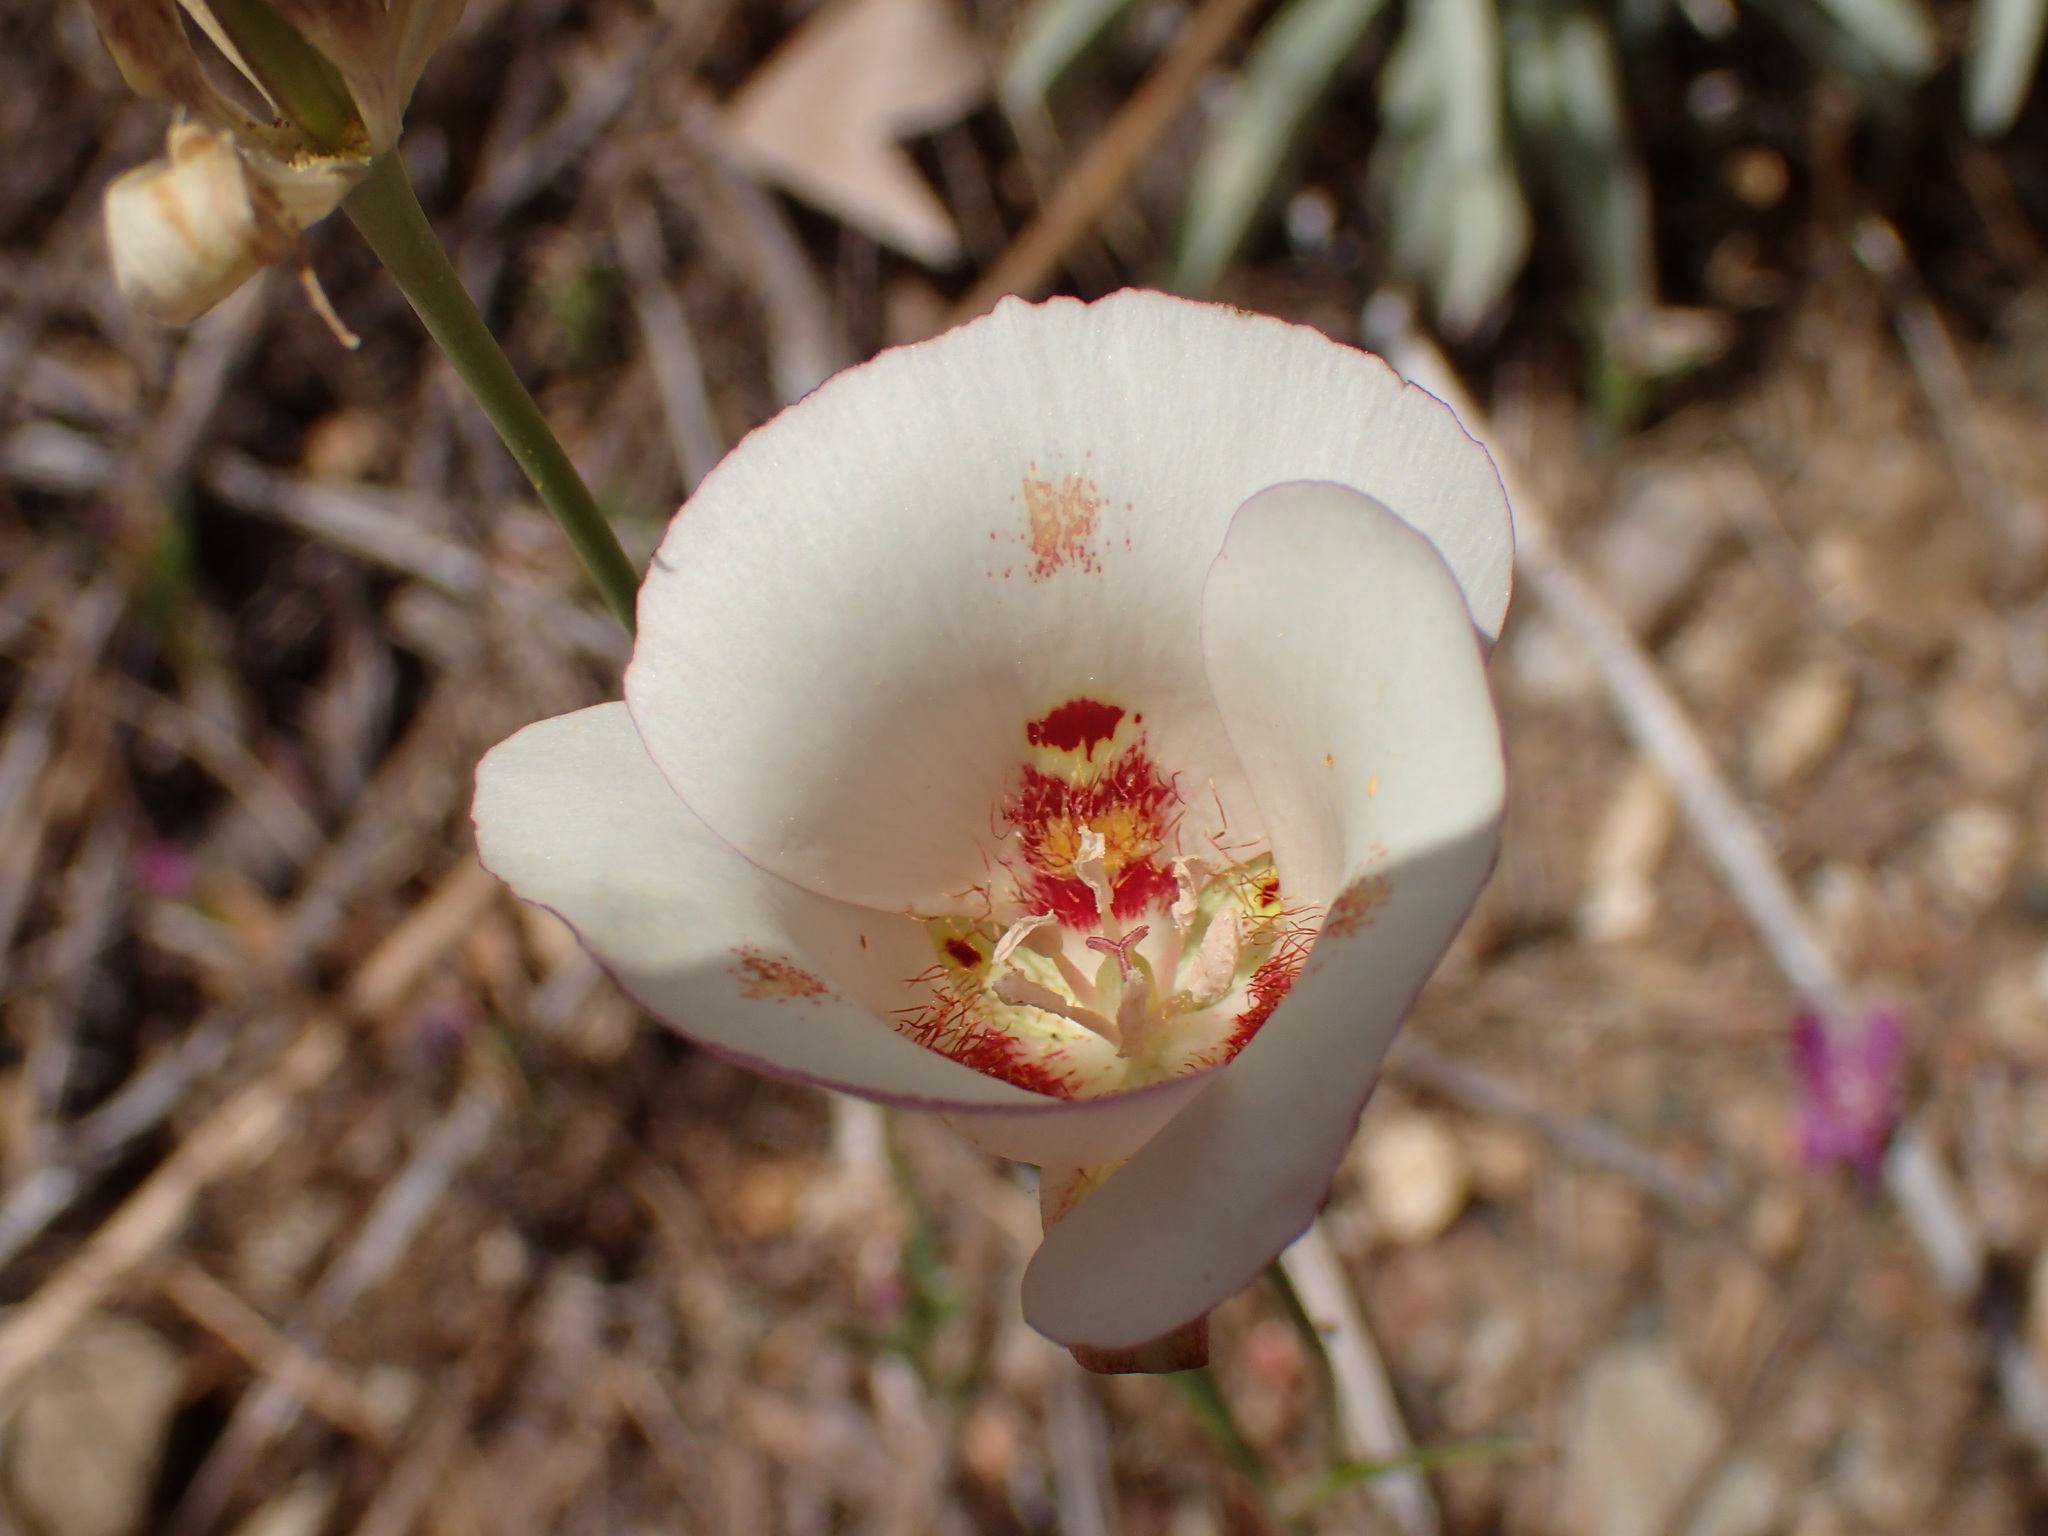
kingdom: Plantae
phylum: Tracheophyta
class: Liliopsida
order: Liliales
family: Liliaceae
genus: Calochortus
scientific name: Calochortus venustus
